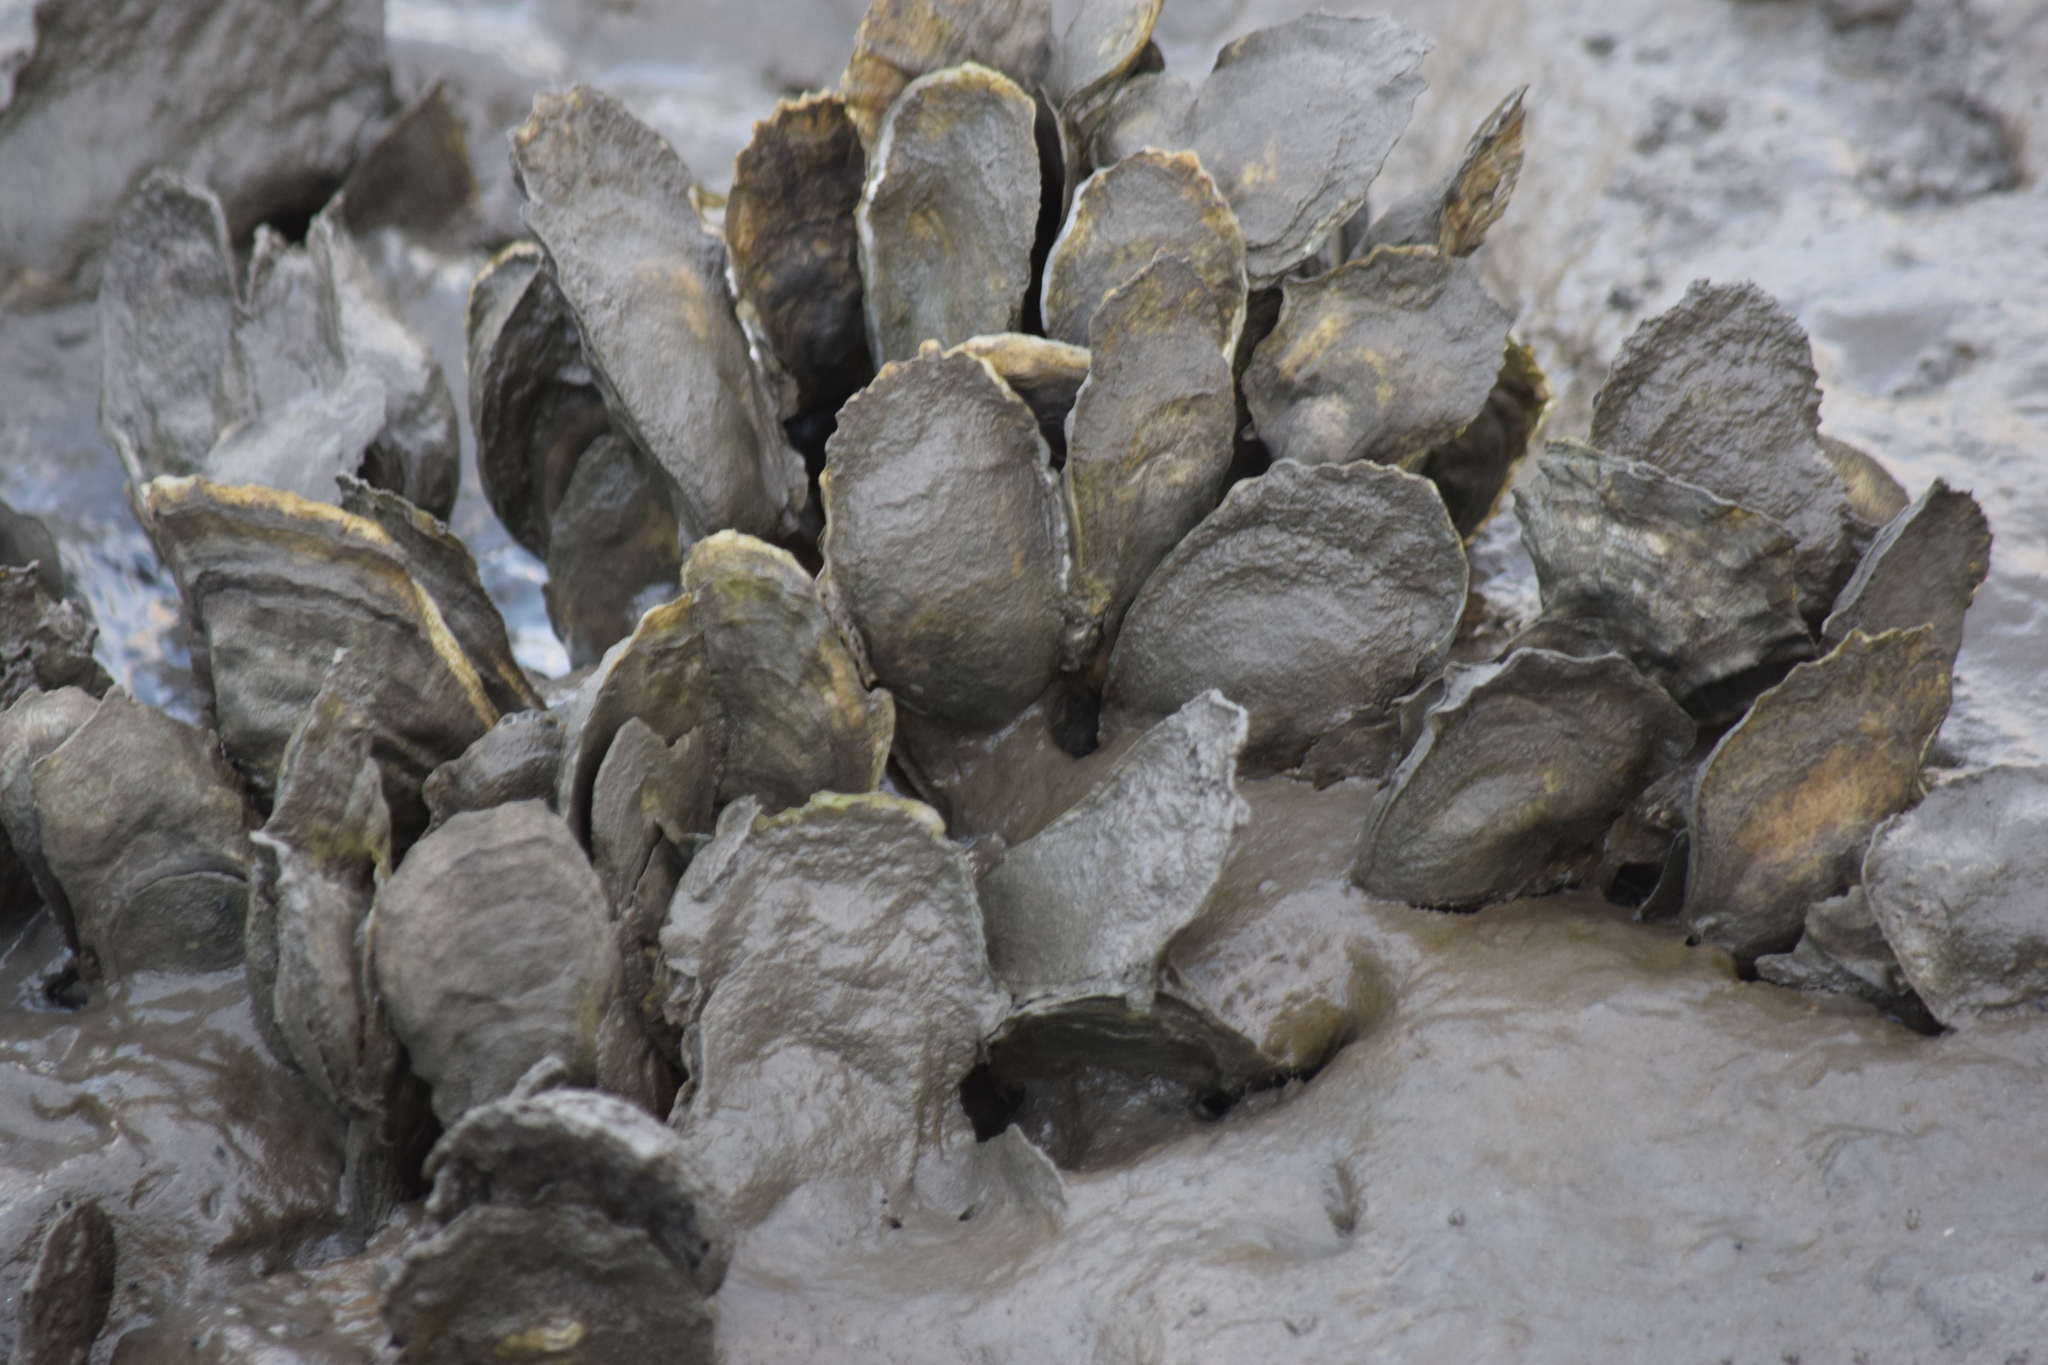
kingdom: Animalia
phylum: Mollusca
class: Bivalvia
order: Ostreida
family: Ostreidae
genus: Crassostrea
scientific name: Crassostrea virginica
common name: American oyster
